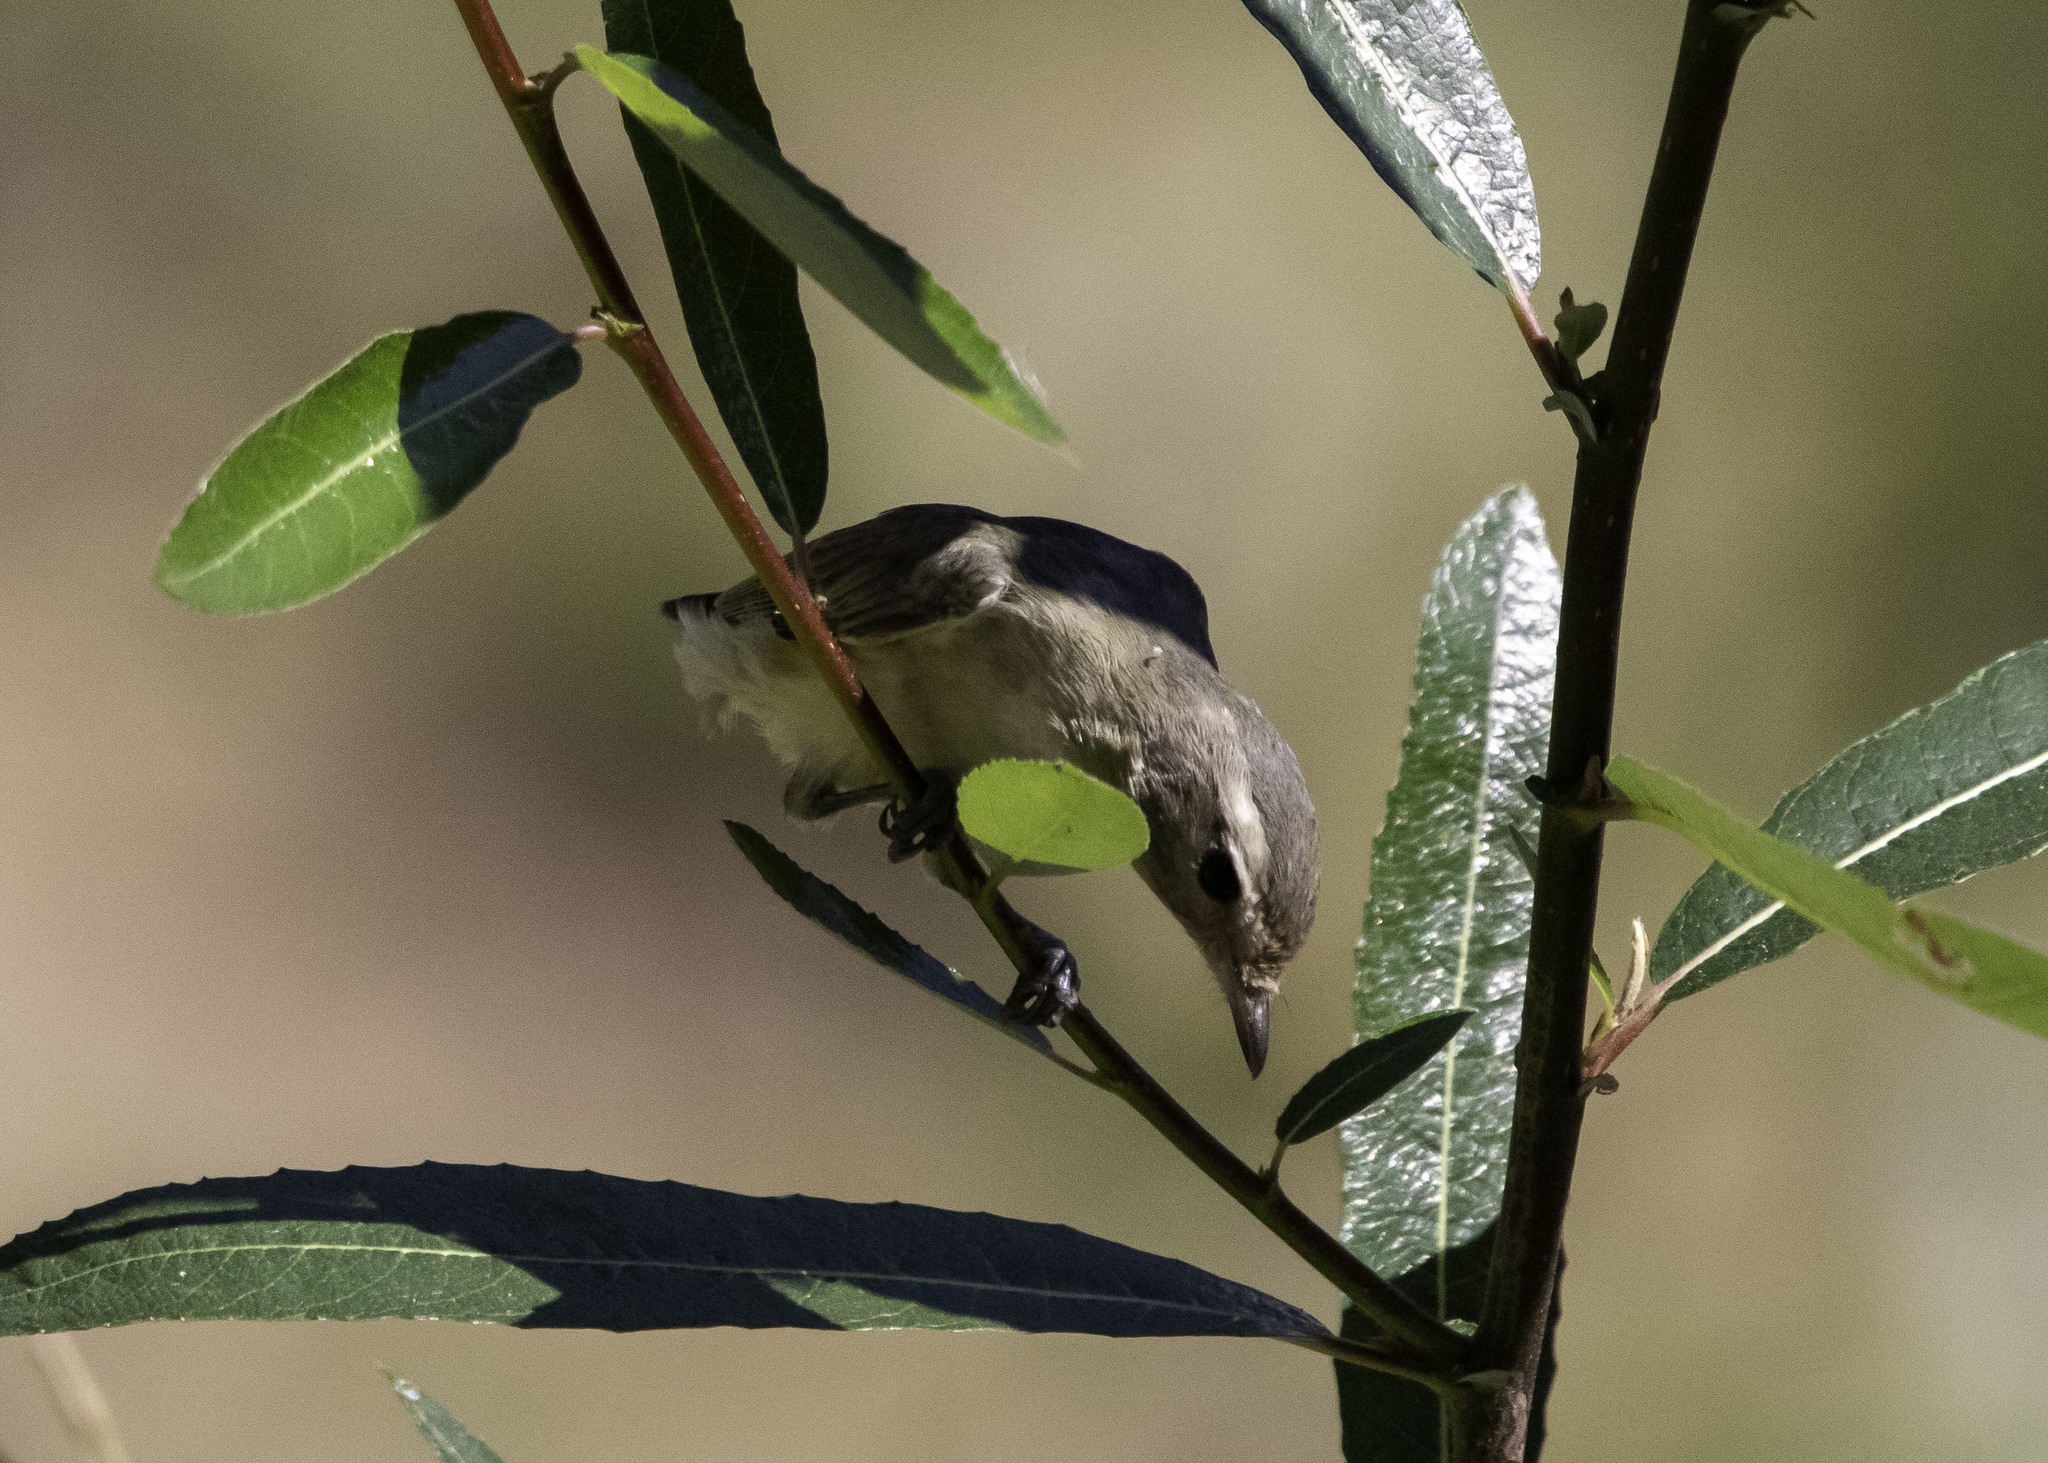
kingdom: Animalia
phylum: Chordata
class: Aves
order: Passeriformes
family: Vireonidae
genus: Vireo
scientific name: Vireo gilvus
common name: Warbling vireo
